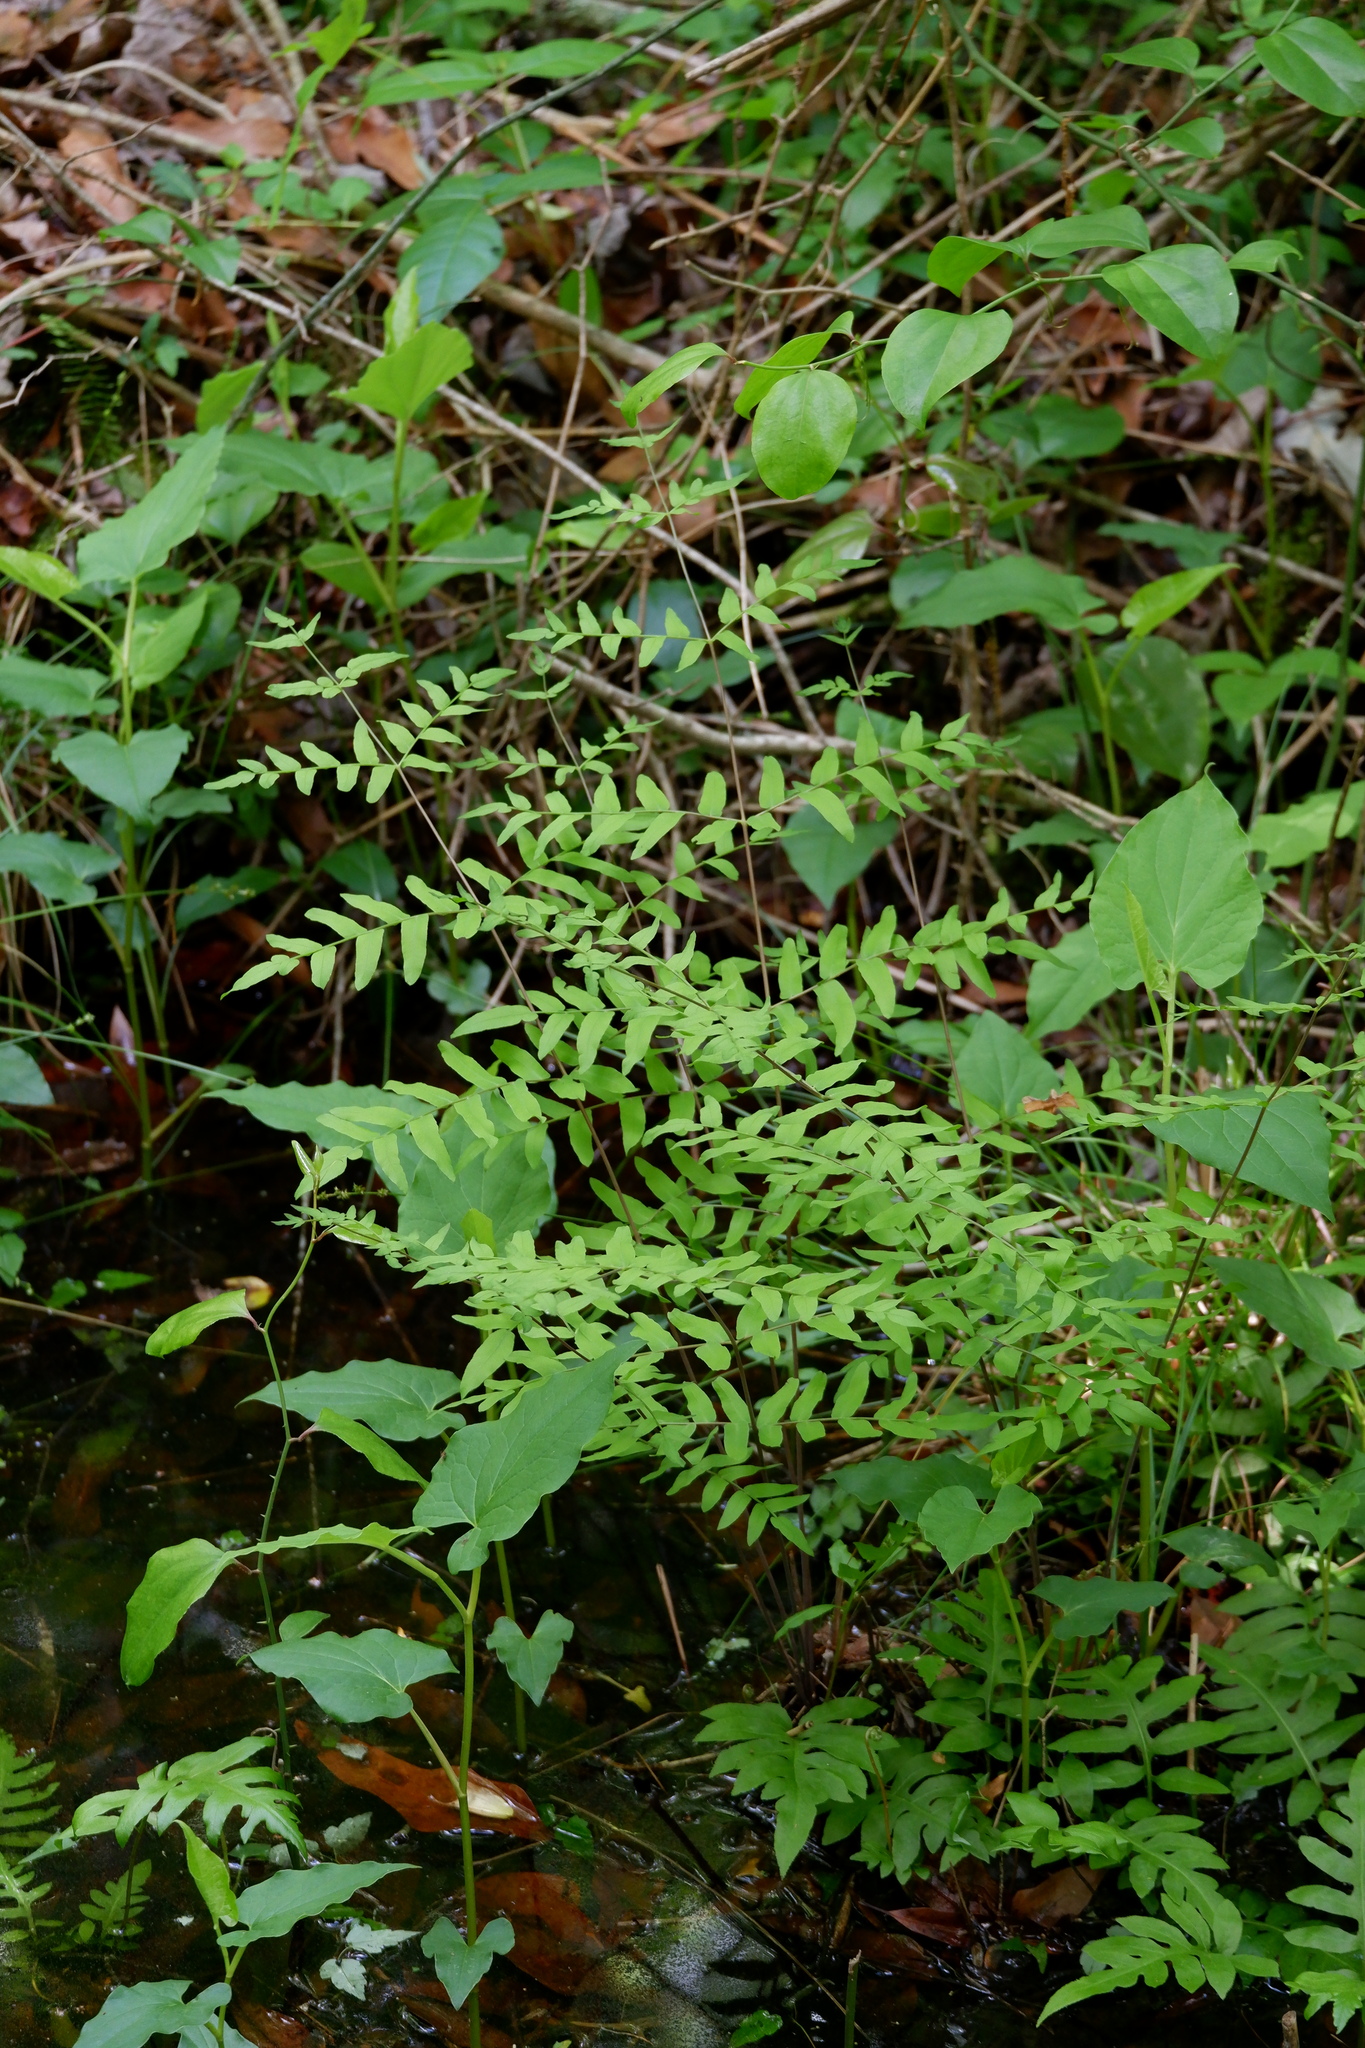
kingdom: Plantae
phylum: Tracheophyta
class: Polypodiopsida
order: Osmundales
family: Osmundaceae
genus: Osmunda
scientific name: Osmunda spectabilis
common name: American royal fern
